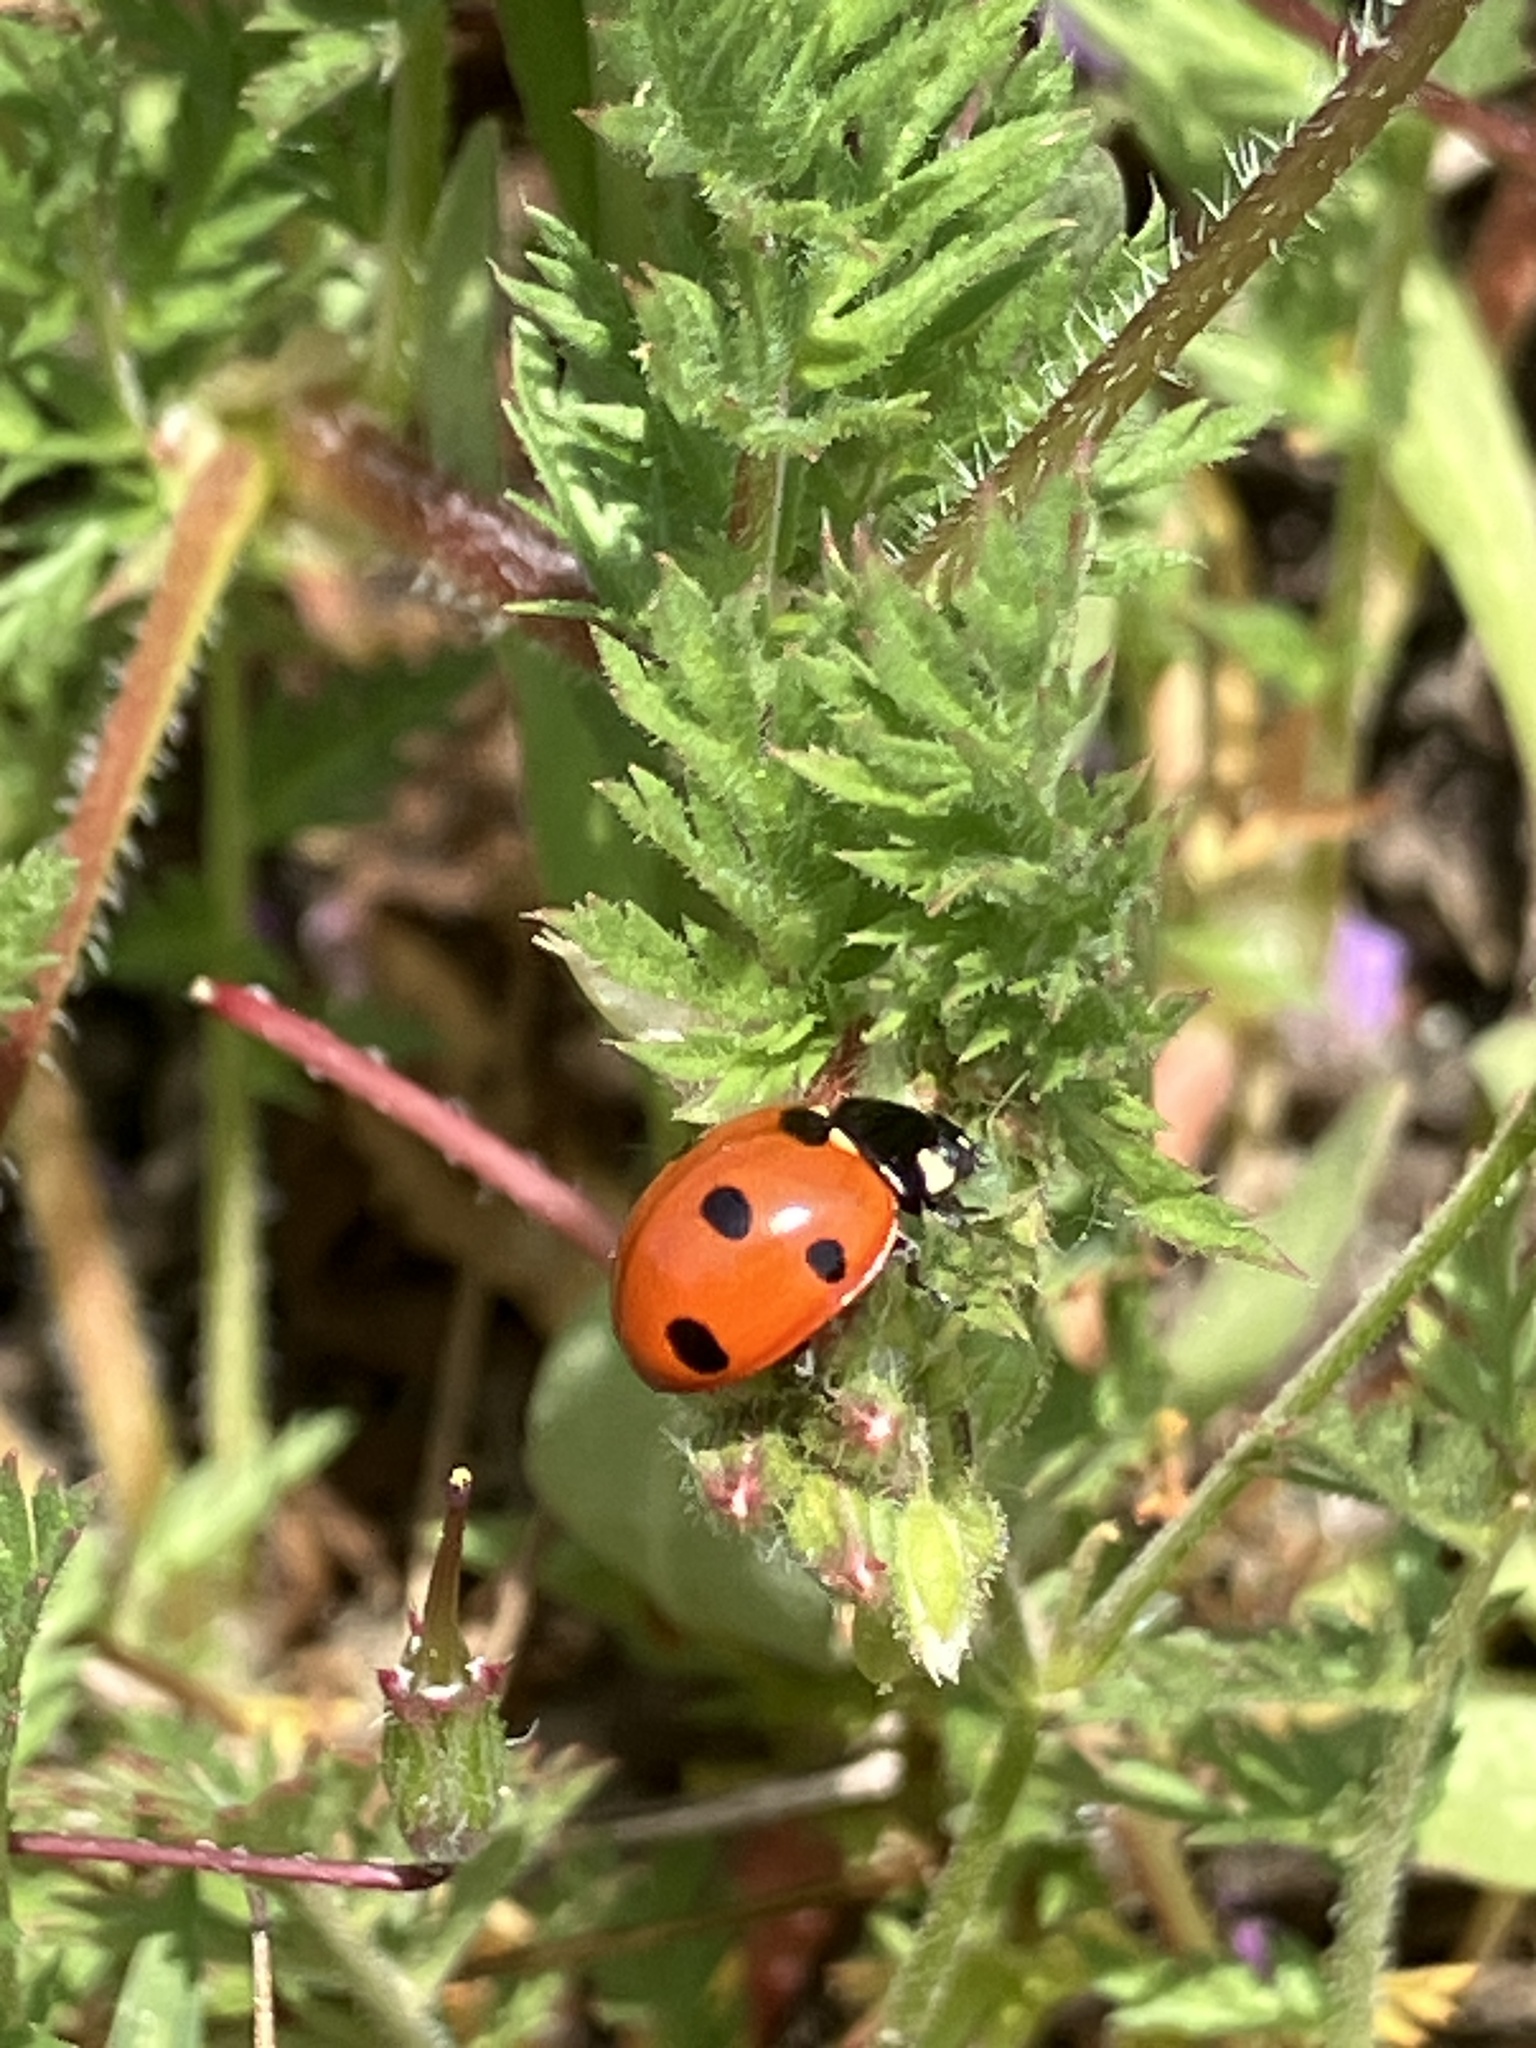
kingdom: Animalia
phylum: Arthropoda
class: Insecta
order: Coleoptera
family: Coccinellidae
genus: Coccinella
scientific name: Coccinella septempunctata
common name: Sevenspotted lady beetle
